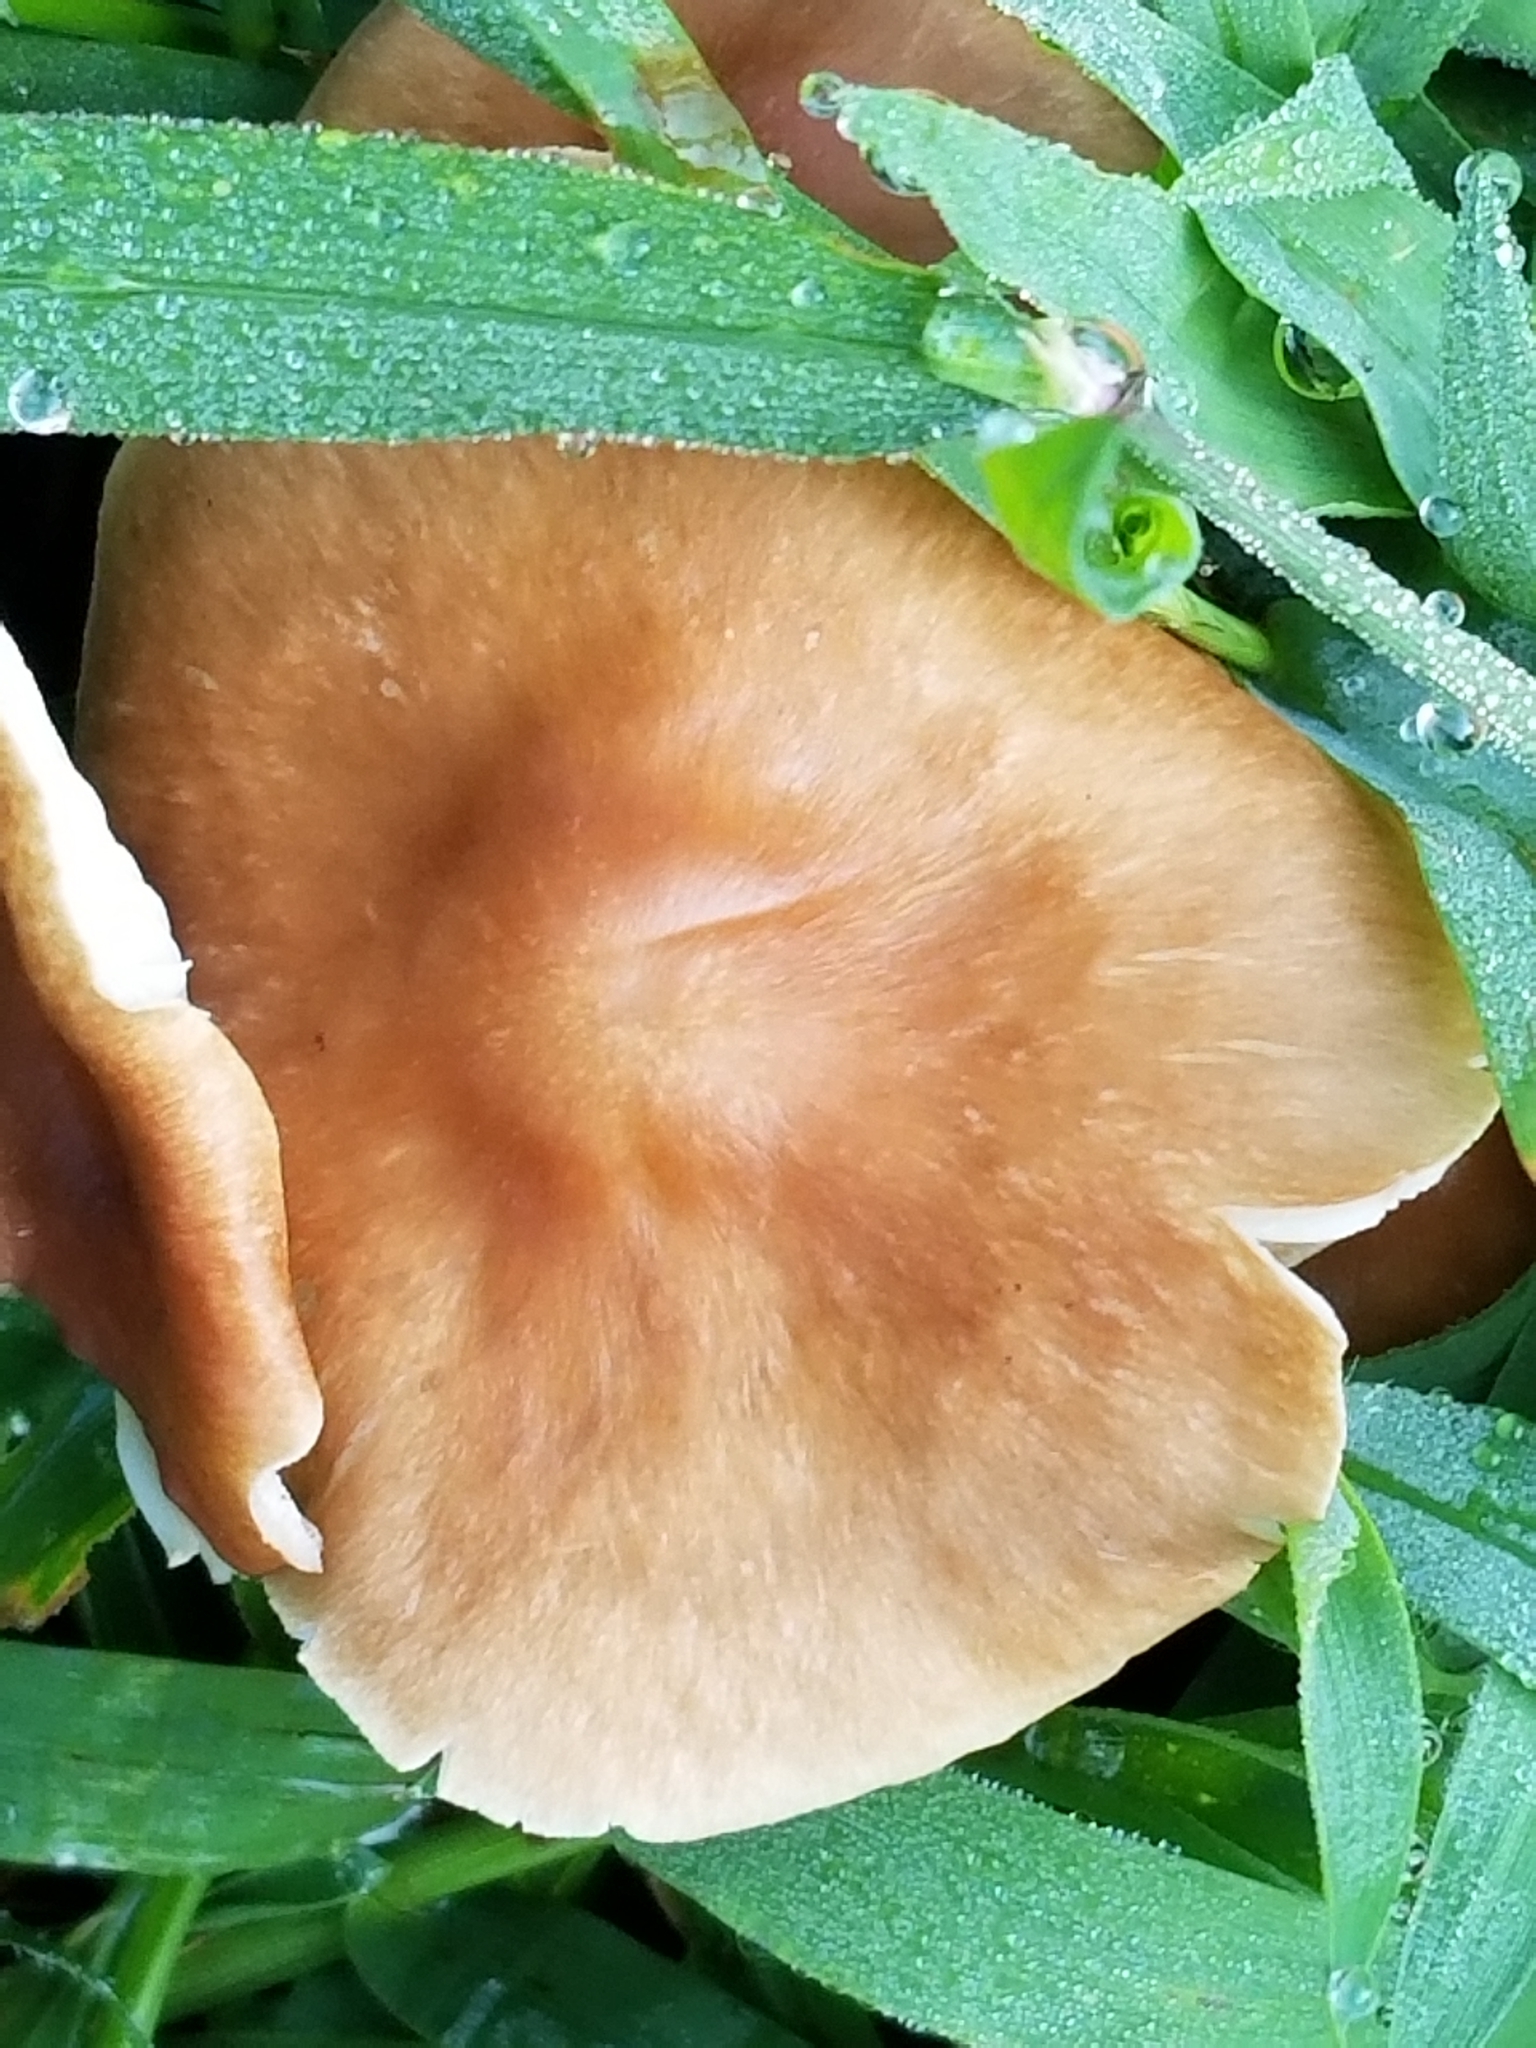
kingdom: Fungi
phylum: Basidiomycota
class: Agaricomycetes
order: Agaricales
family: Omphalotaceae
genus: Collybiopsis
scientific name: Collybiopsis luxurians
